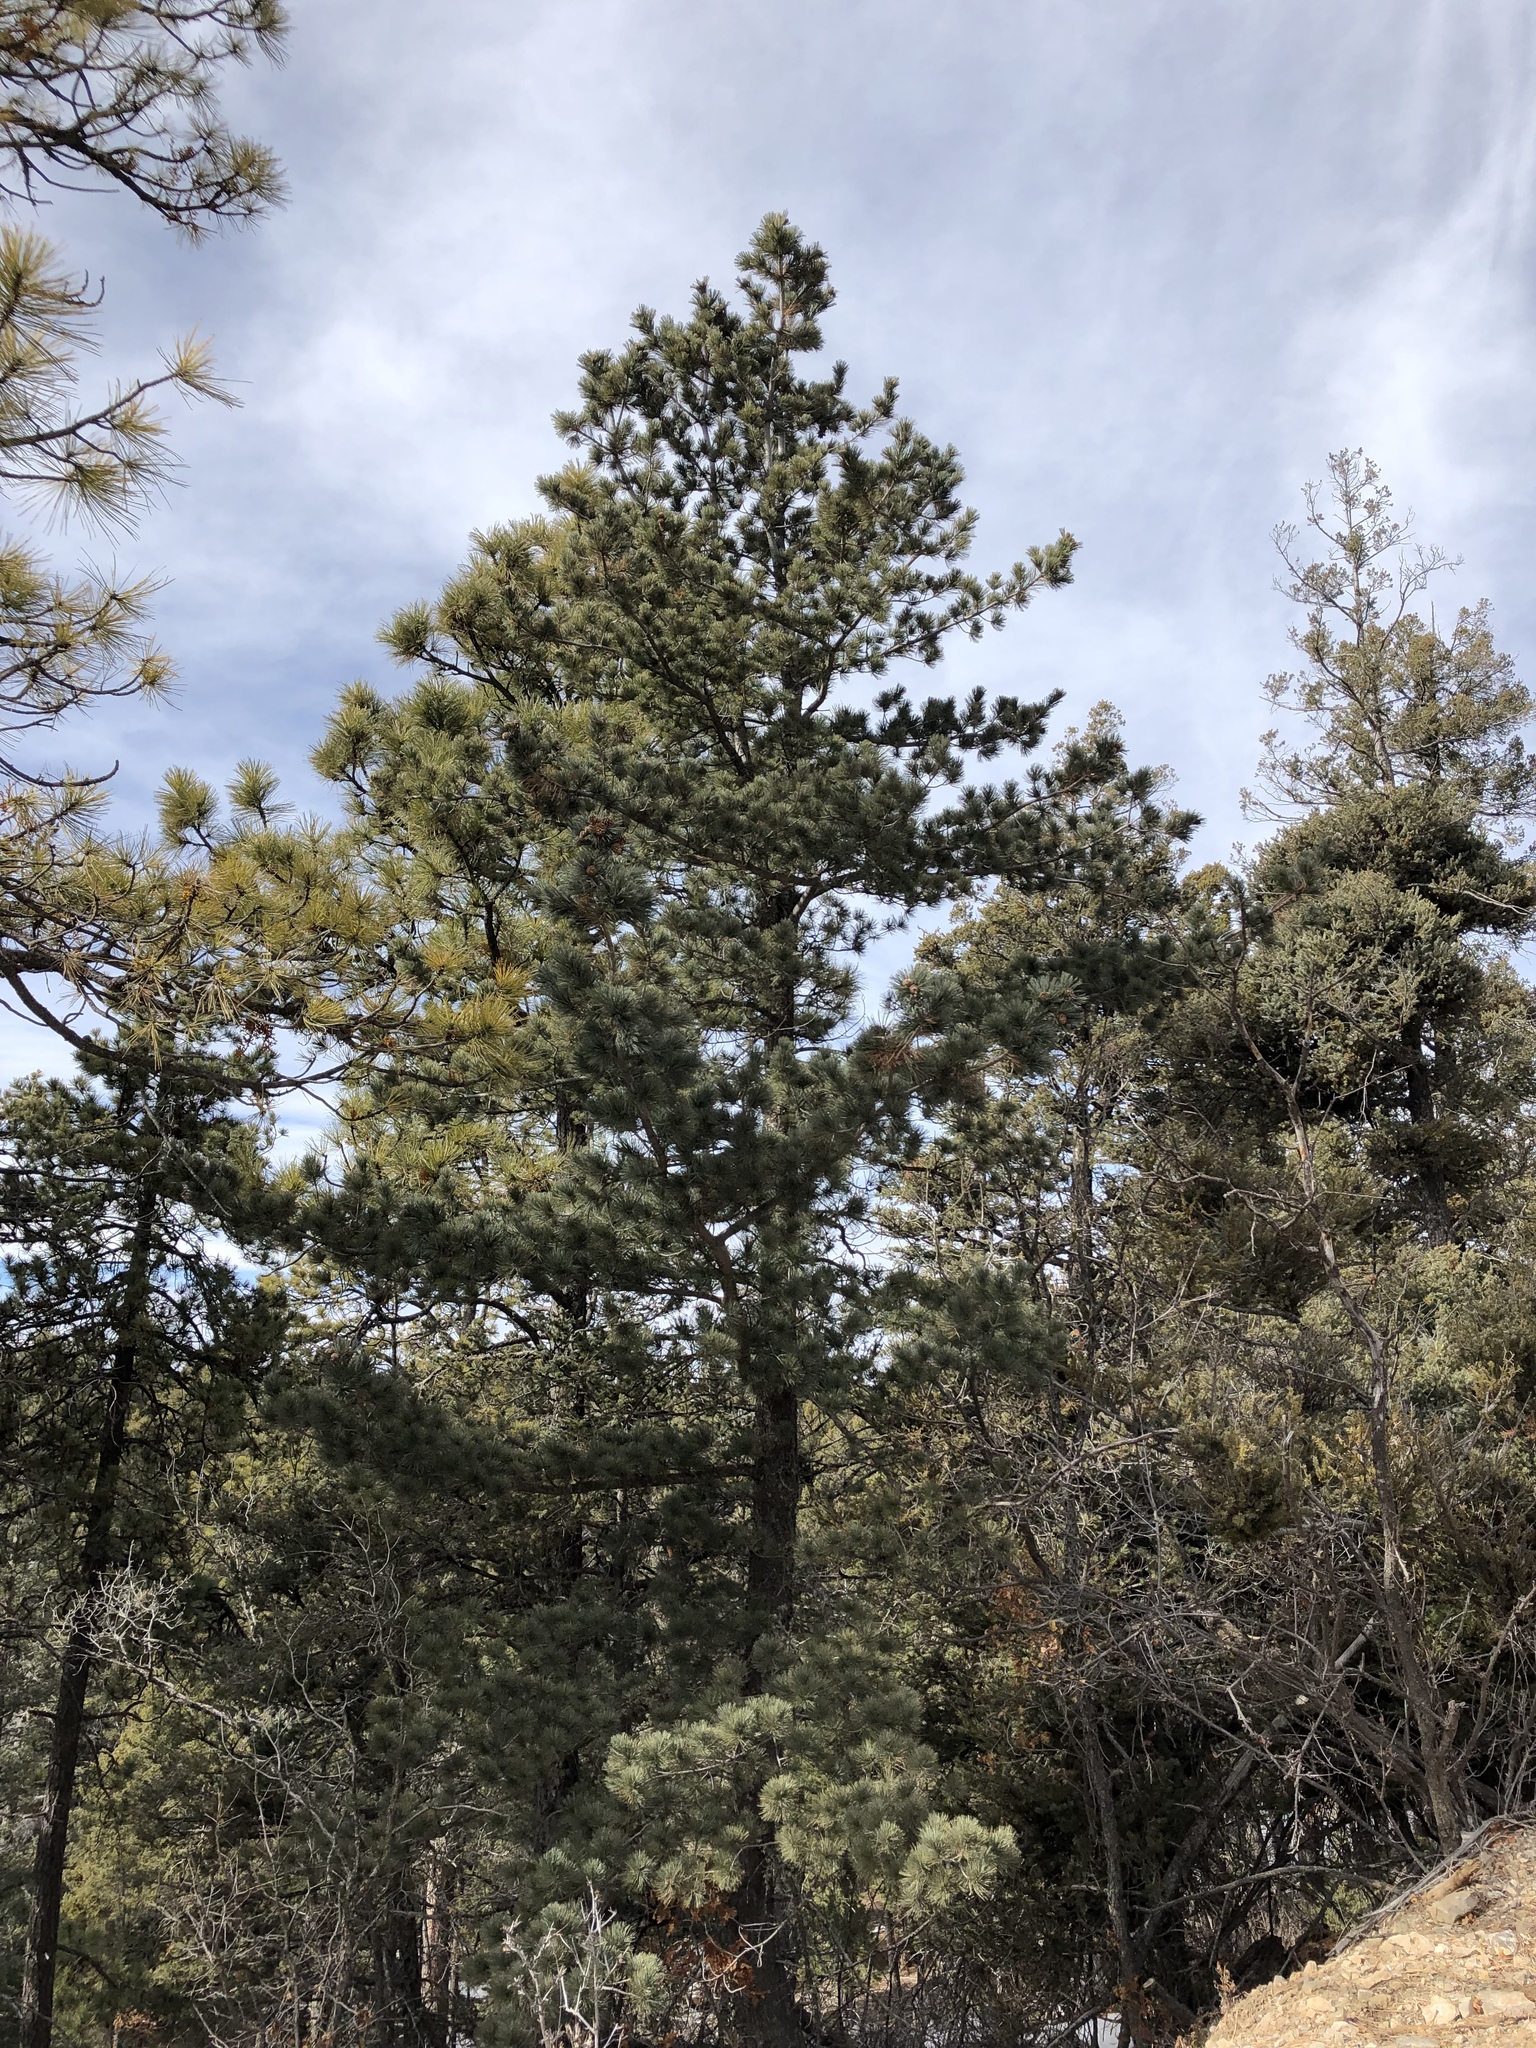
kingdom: Plantae
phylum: Tracheophyta
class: Pinopsida
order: Pinales
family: Pinaceae
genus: Pinus
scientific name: Pinus strobiformis
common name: Southwestern white pine
